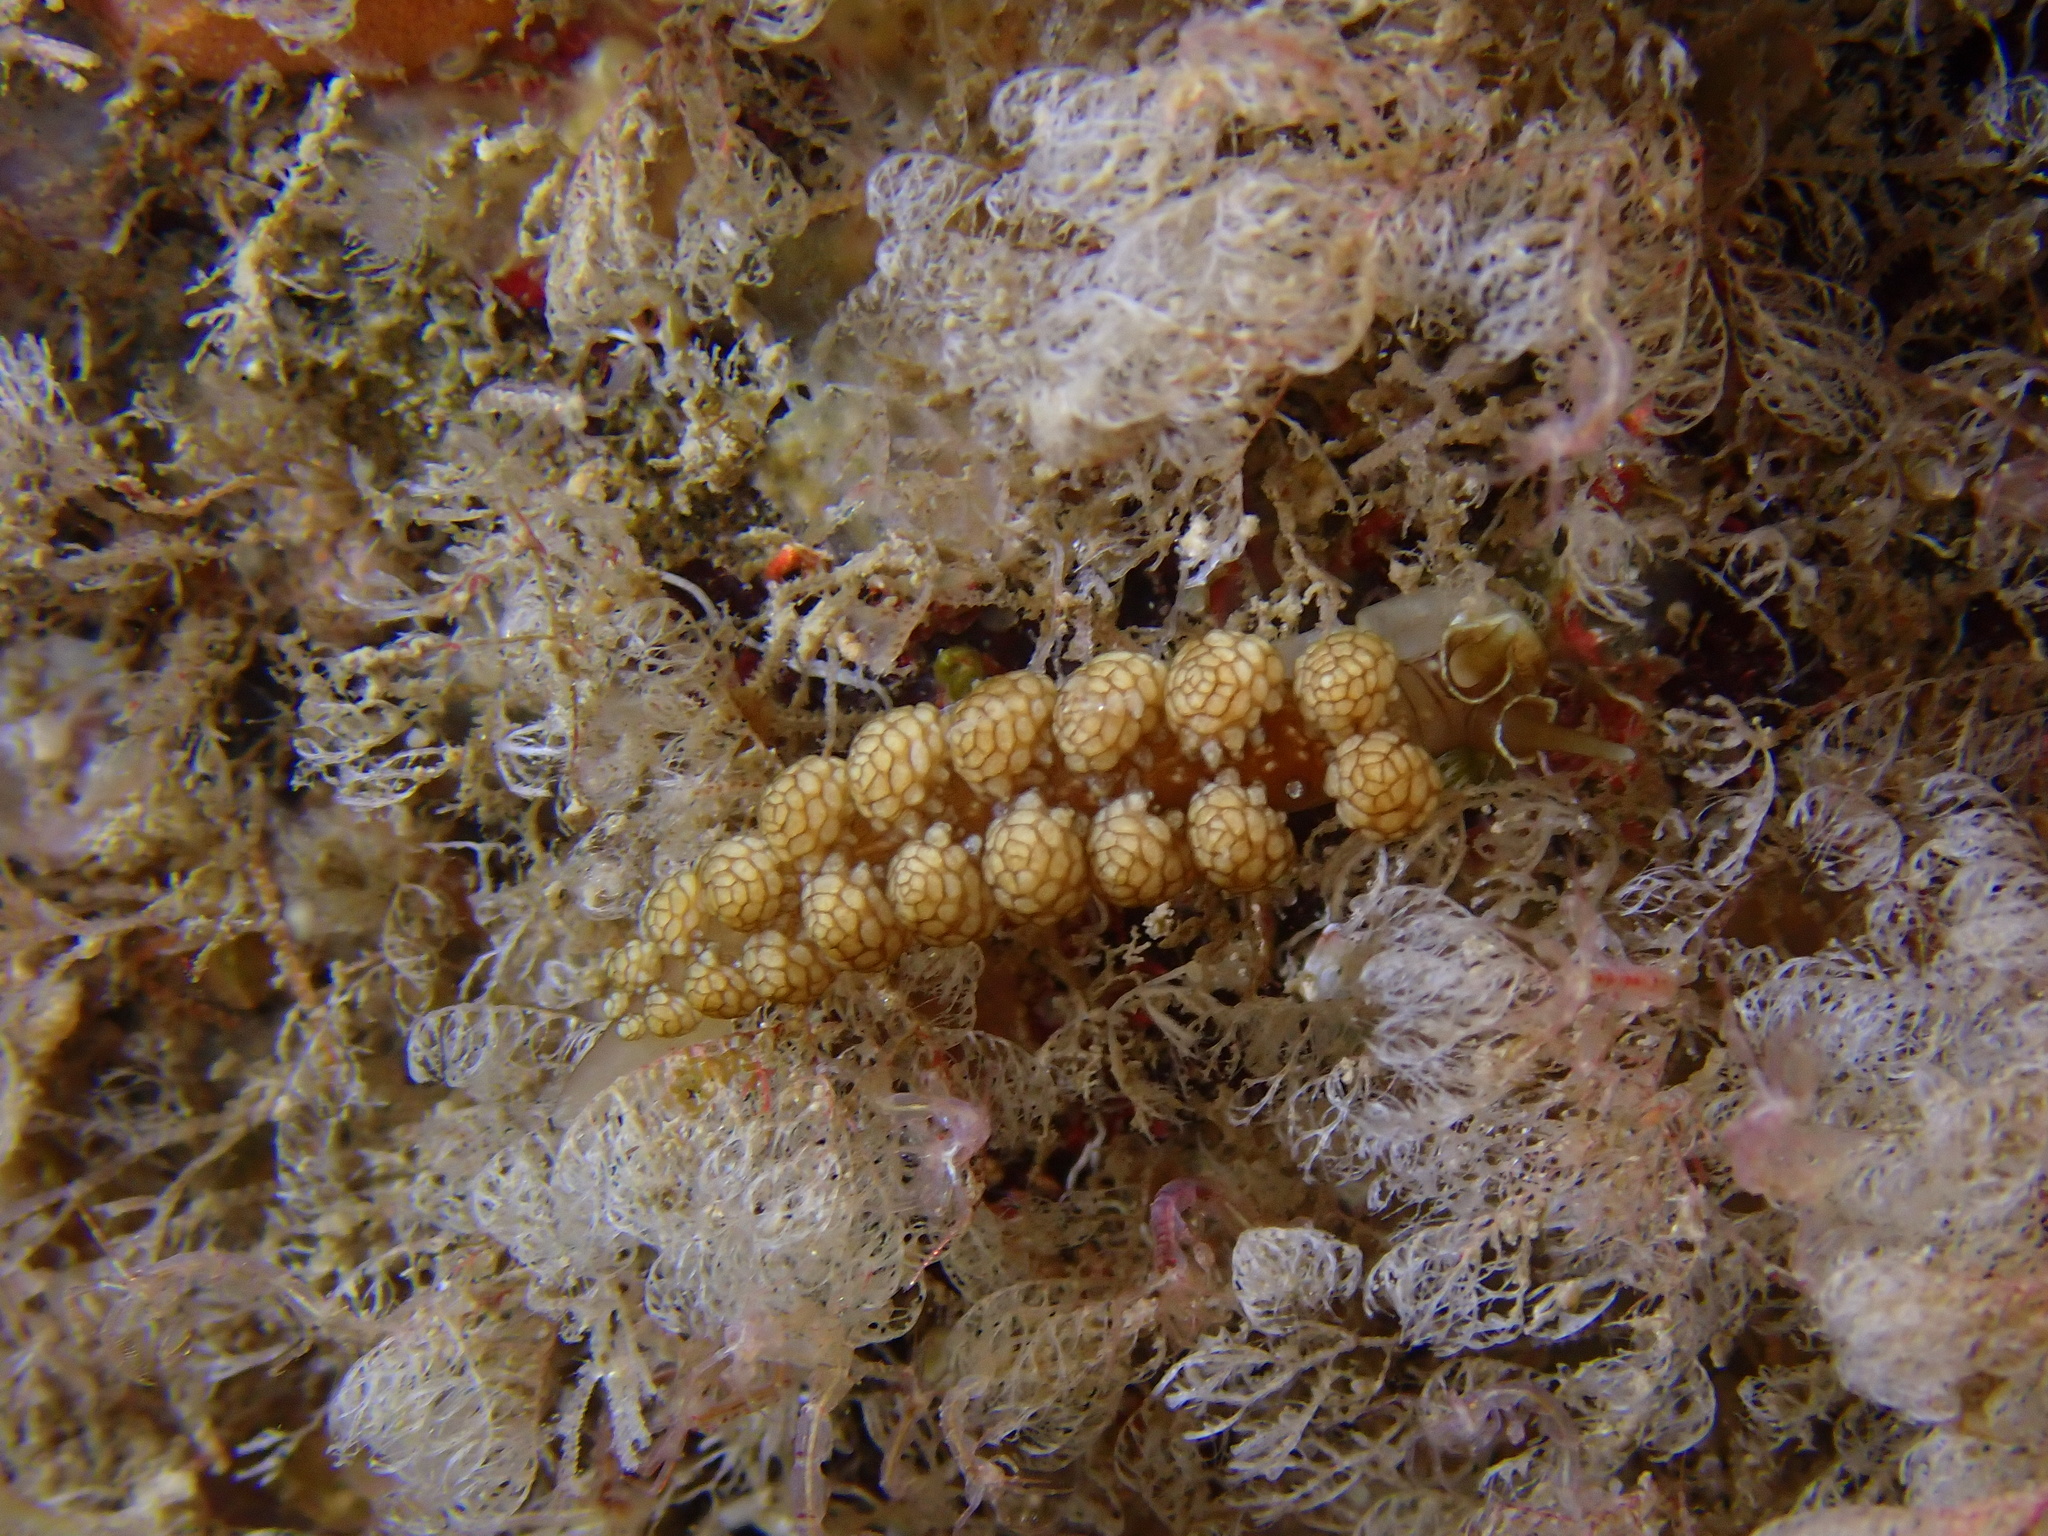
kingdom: Animalia
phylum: Mollusca
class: Gastropoda
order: Nudibranchia
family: Dotidae
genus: Doto
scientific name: Doto fragilis
